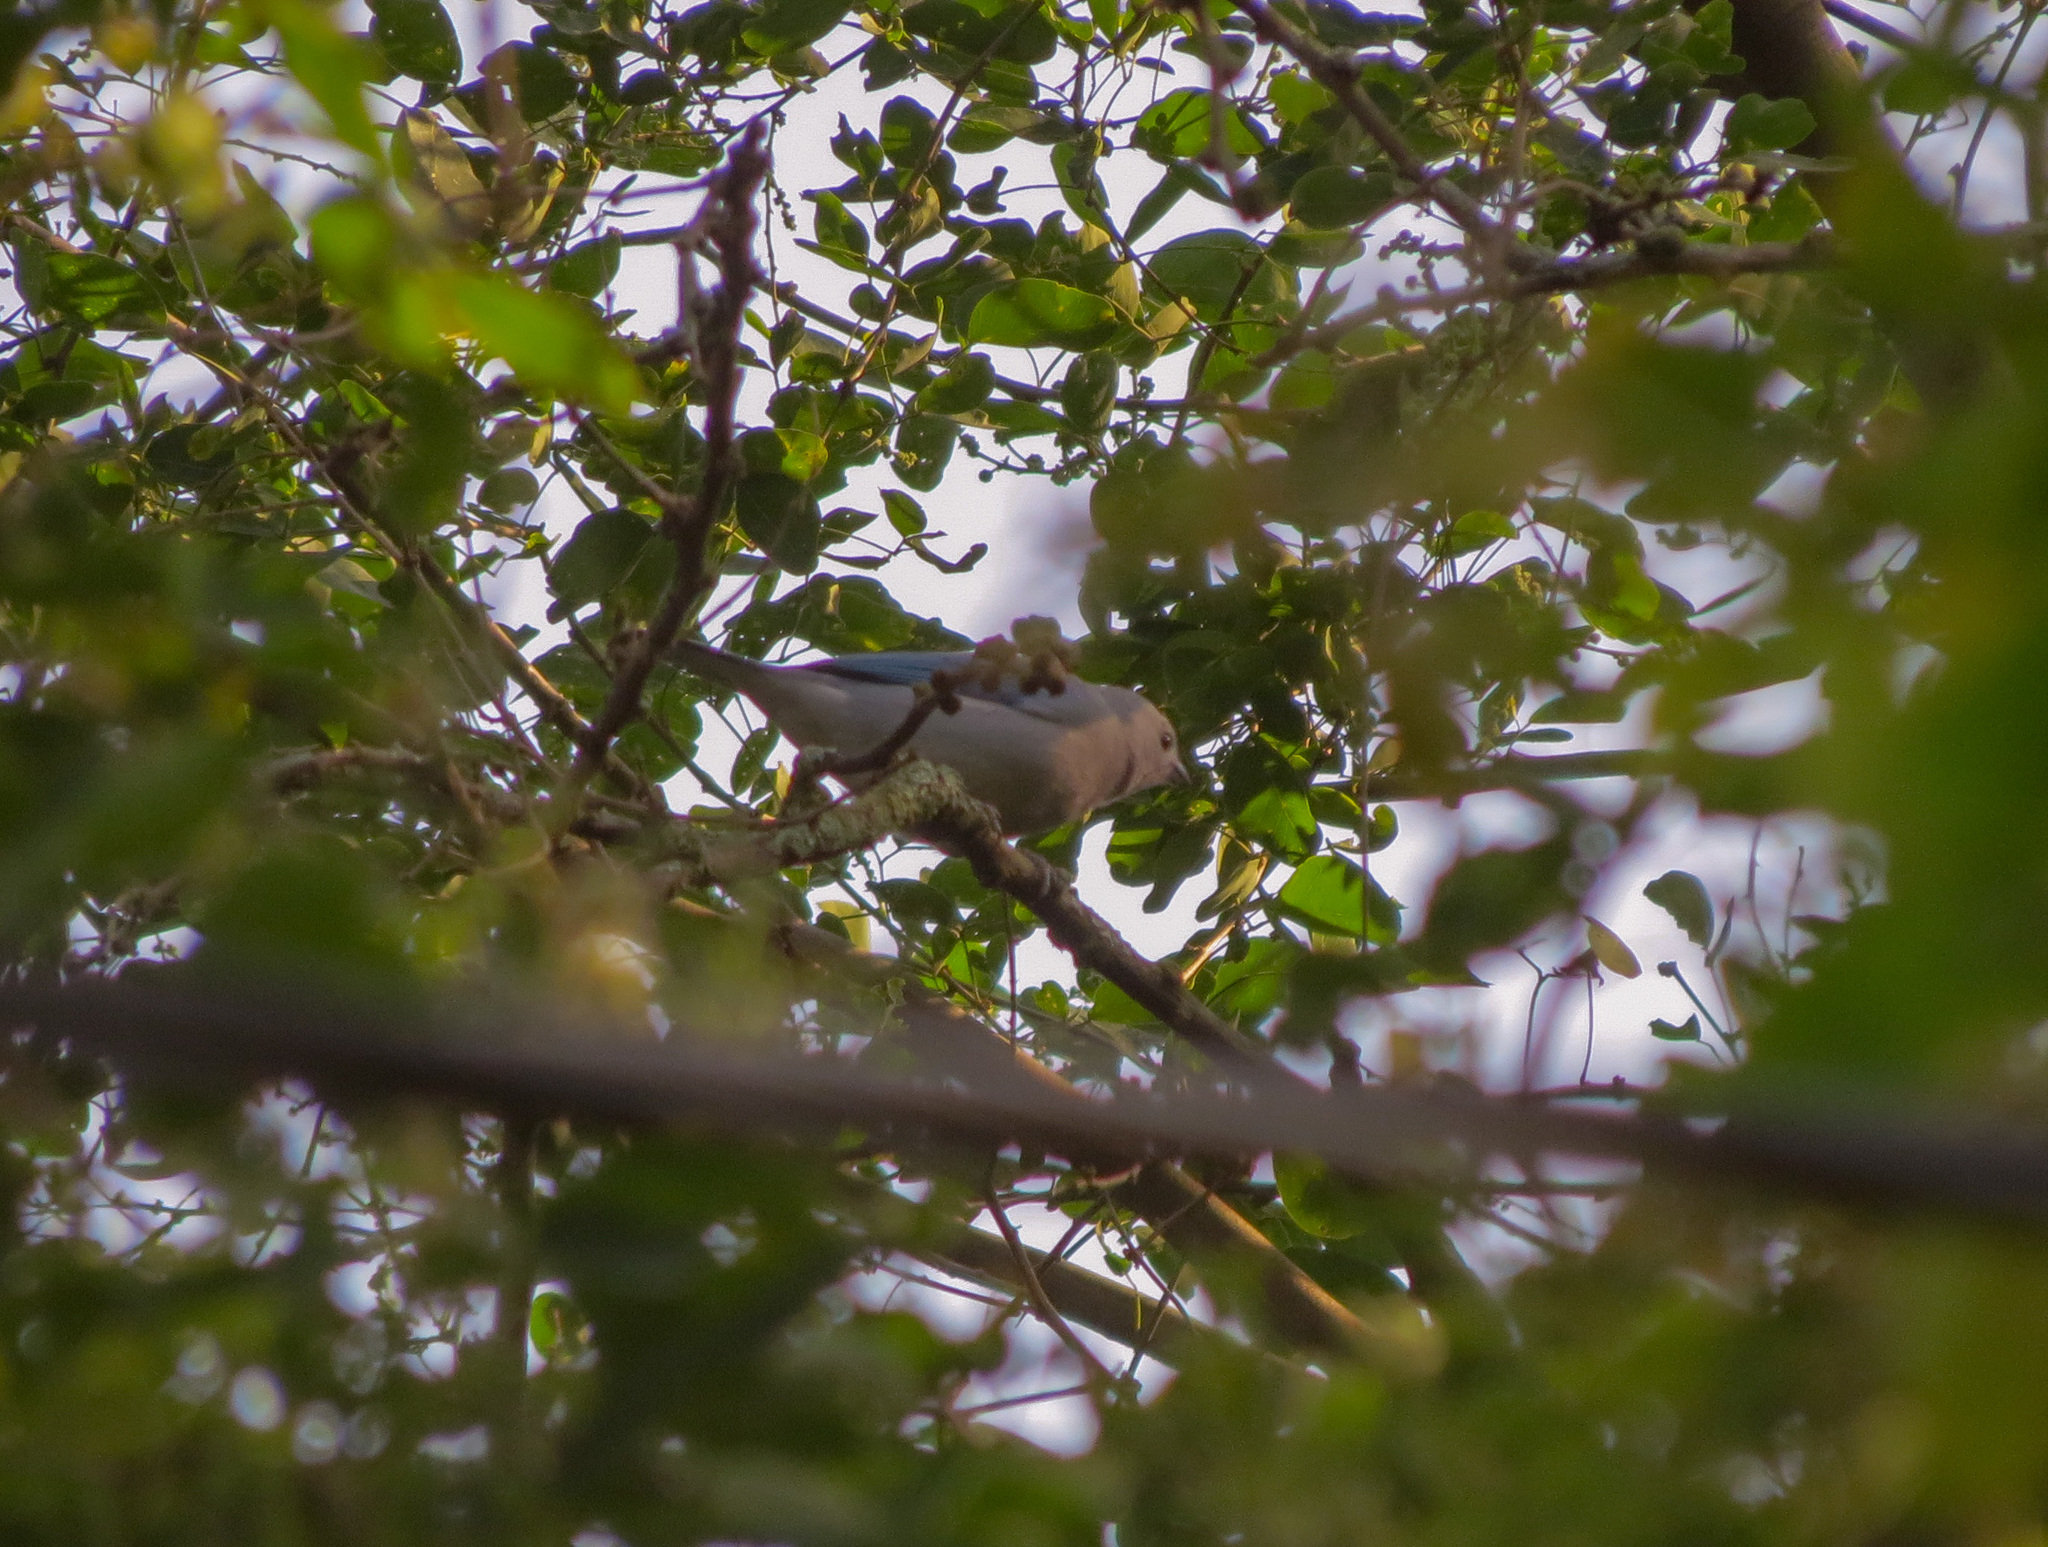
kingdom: Animalia
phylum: Chordata
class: Aves
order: Passeriformes
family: Thraupidae
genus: Thraupis
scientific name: Thraupis episcopus
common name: Blue-grey tanager
